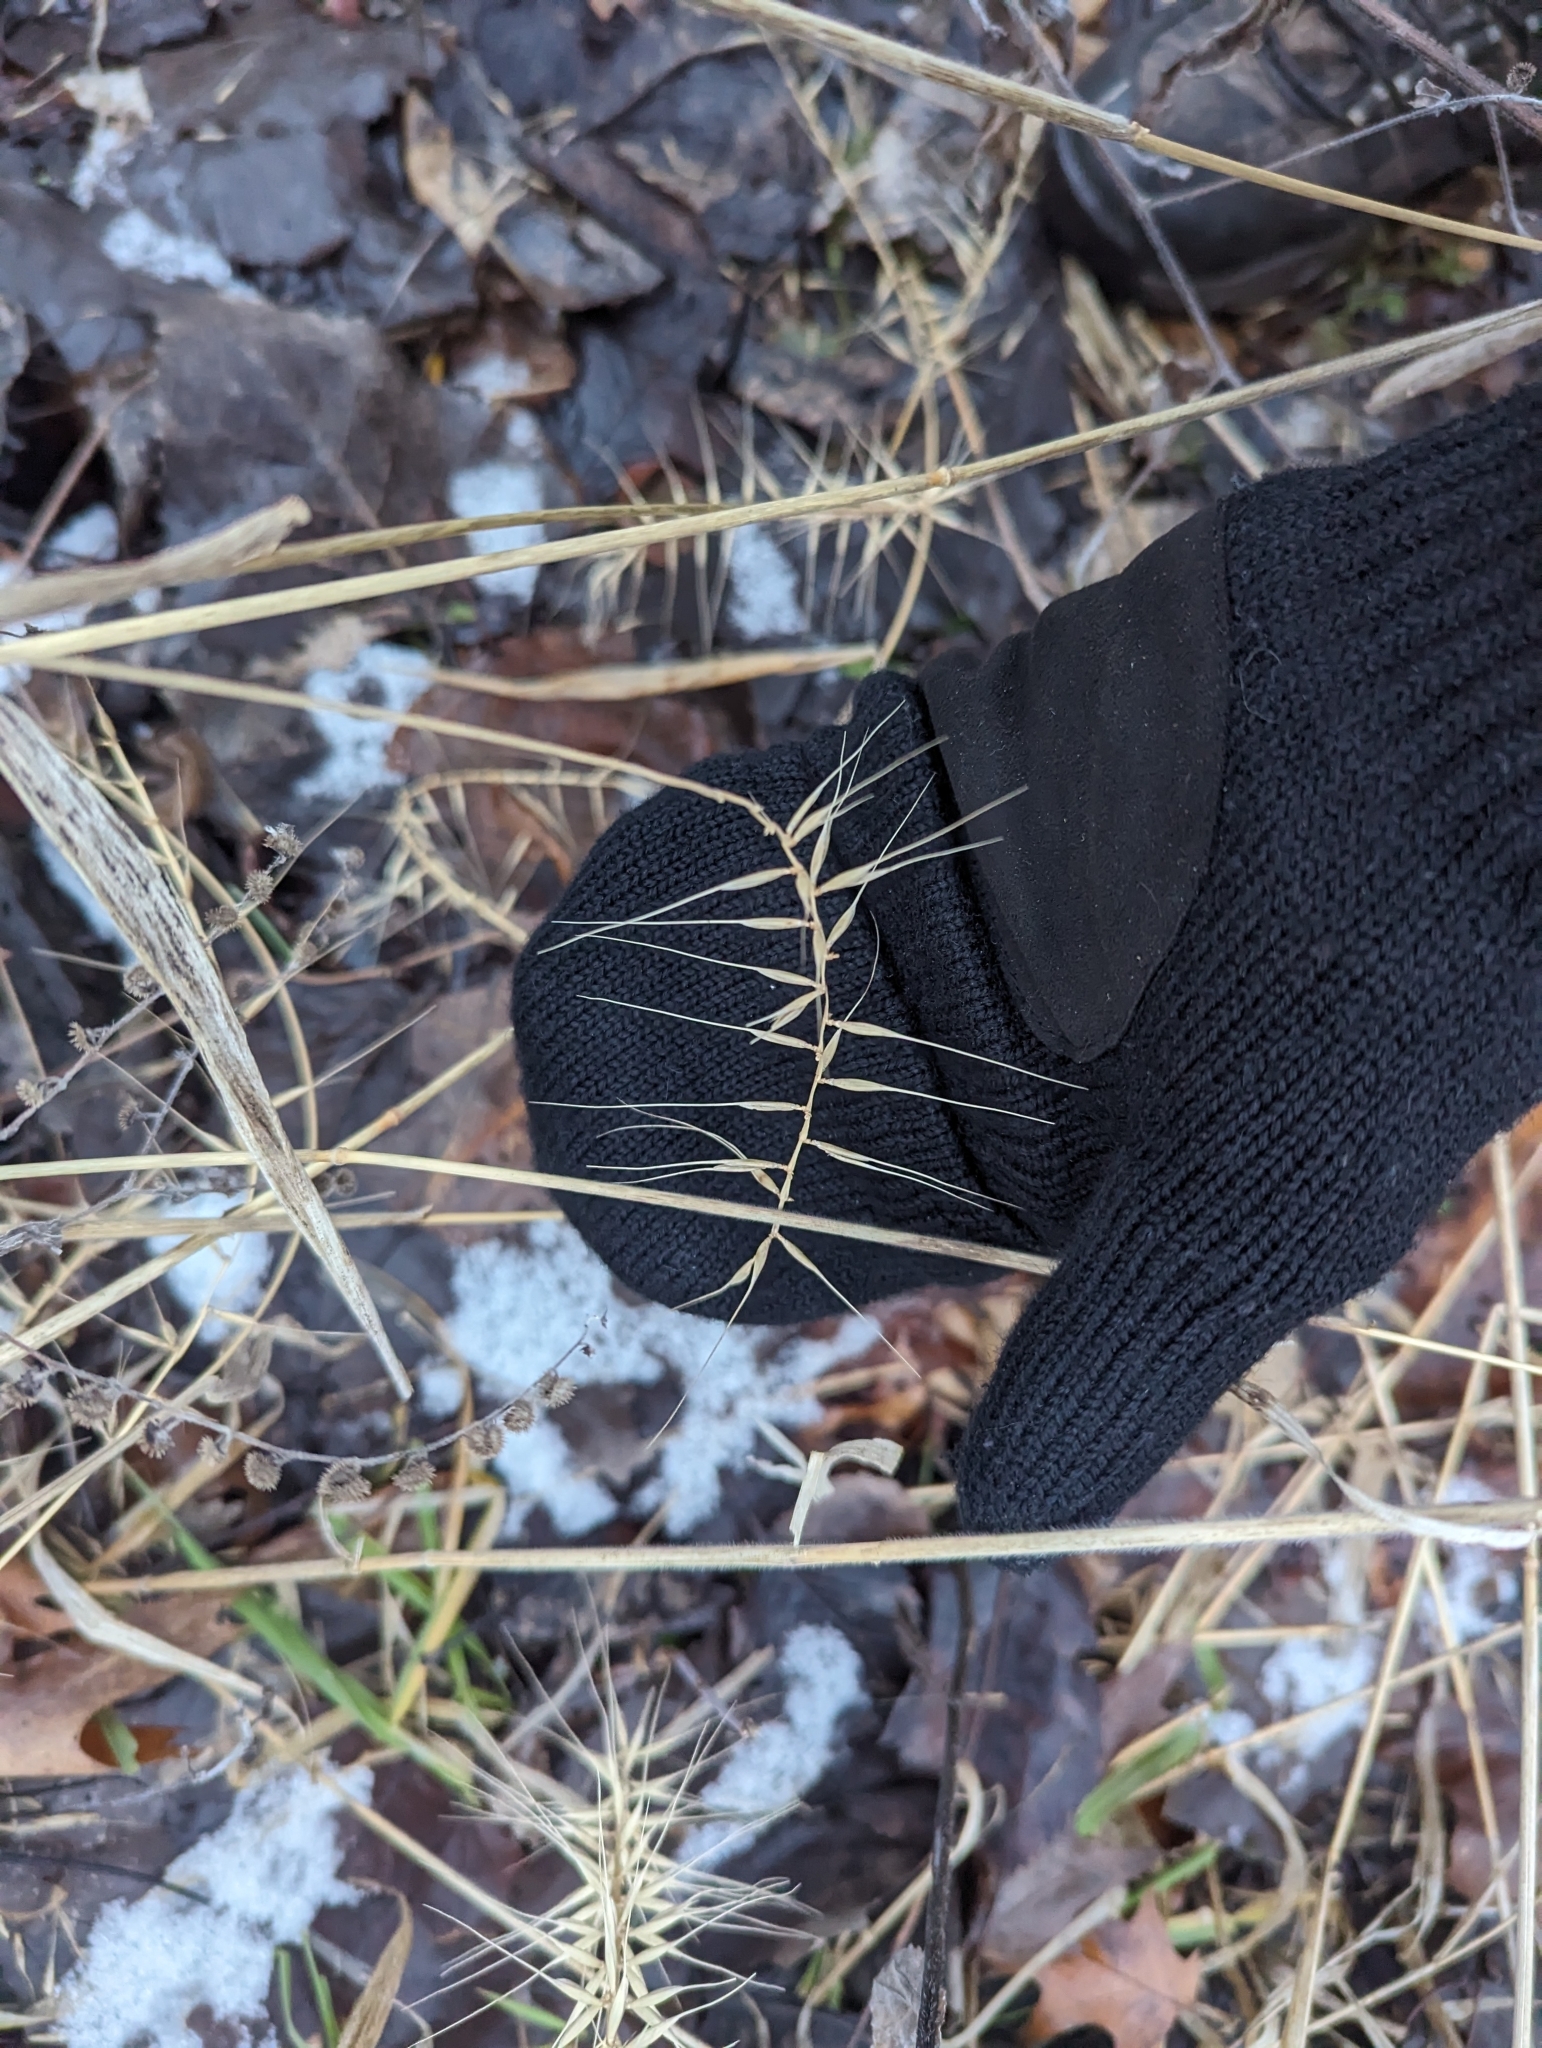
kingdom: Plantae
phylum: Tracheophyta
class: Liliopsida
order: Poales
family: Poaceae
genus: Elymus
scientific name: Elymus hystrix
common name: Bottlebrush grass
